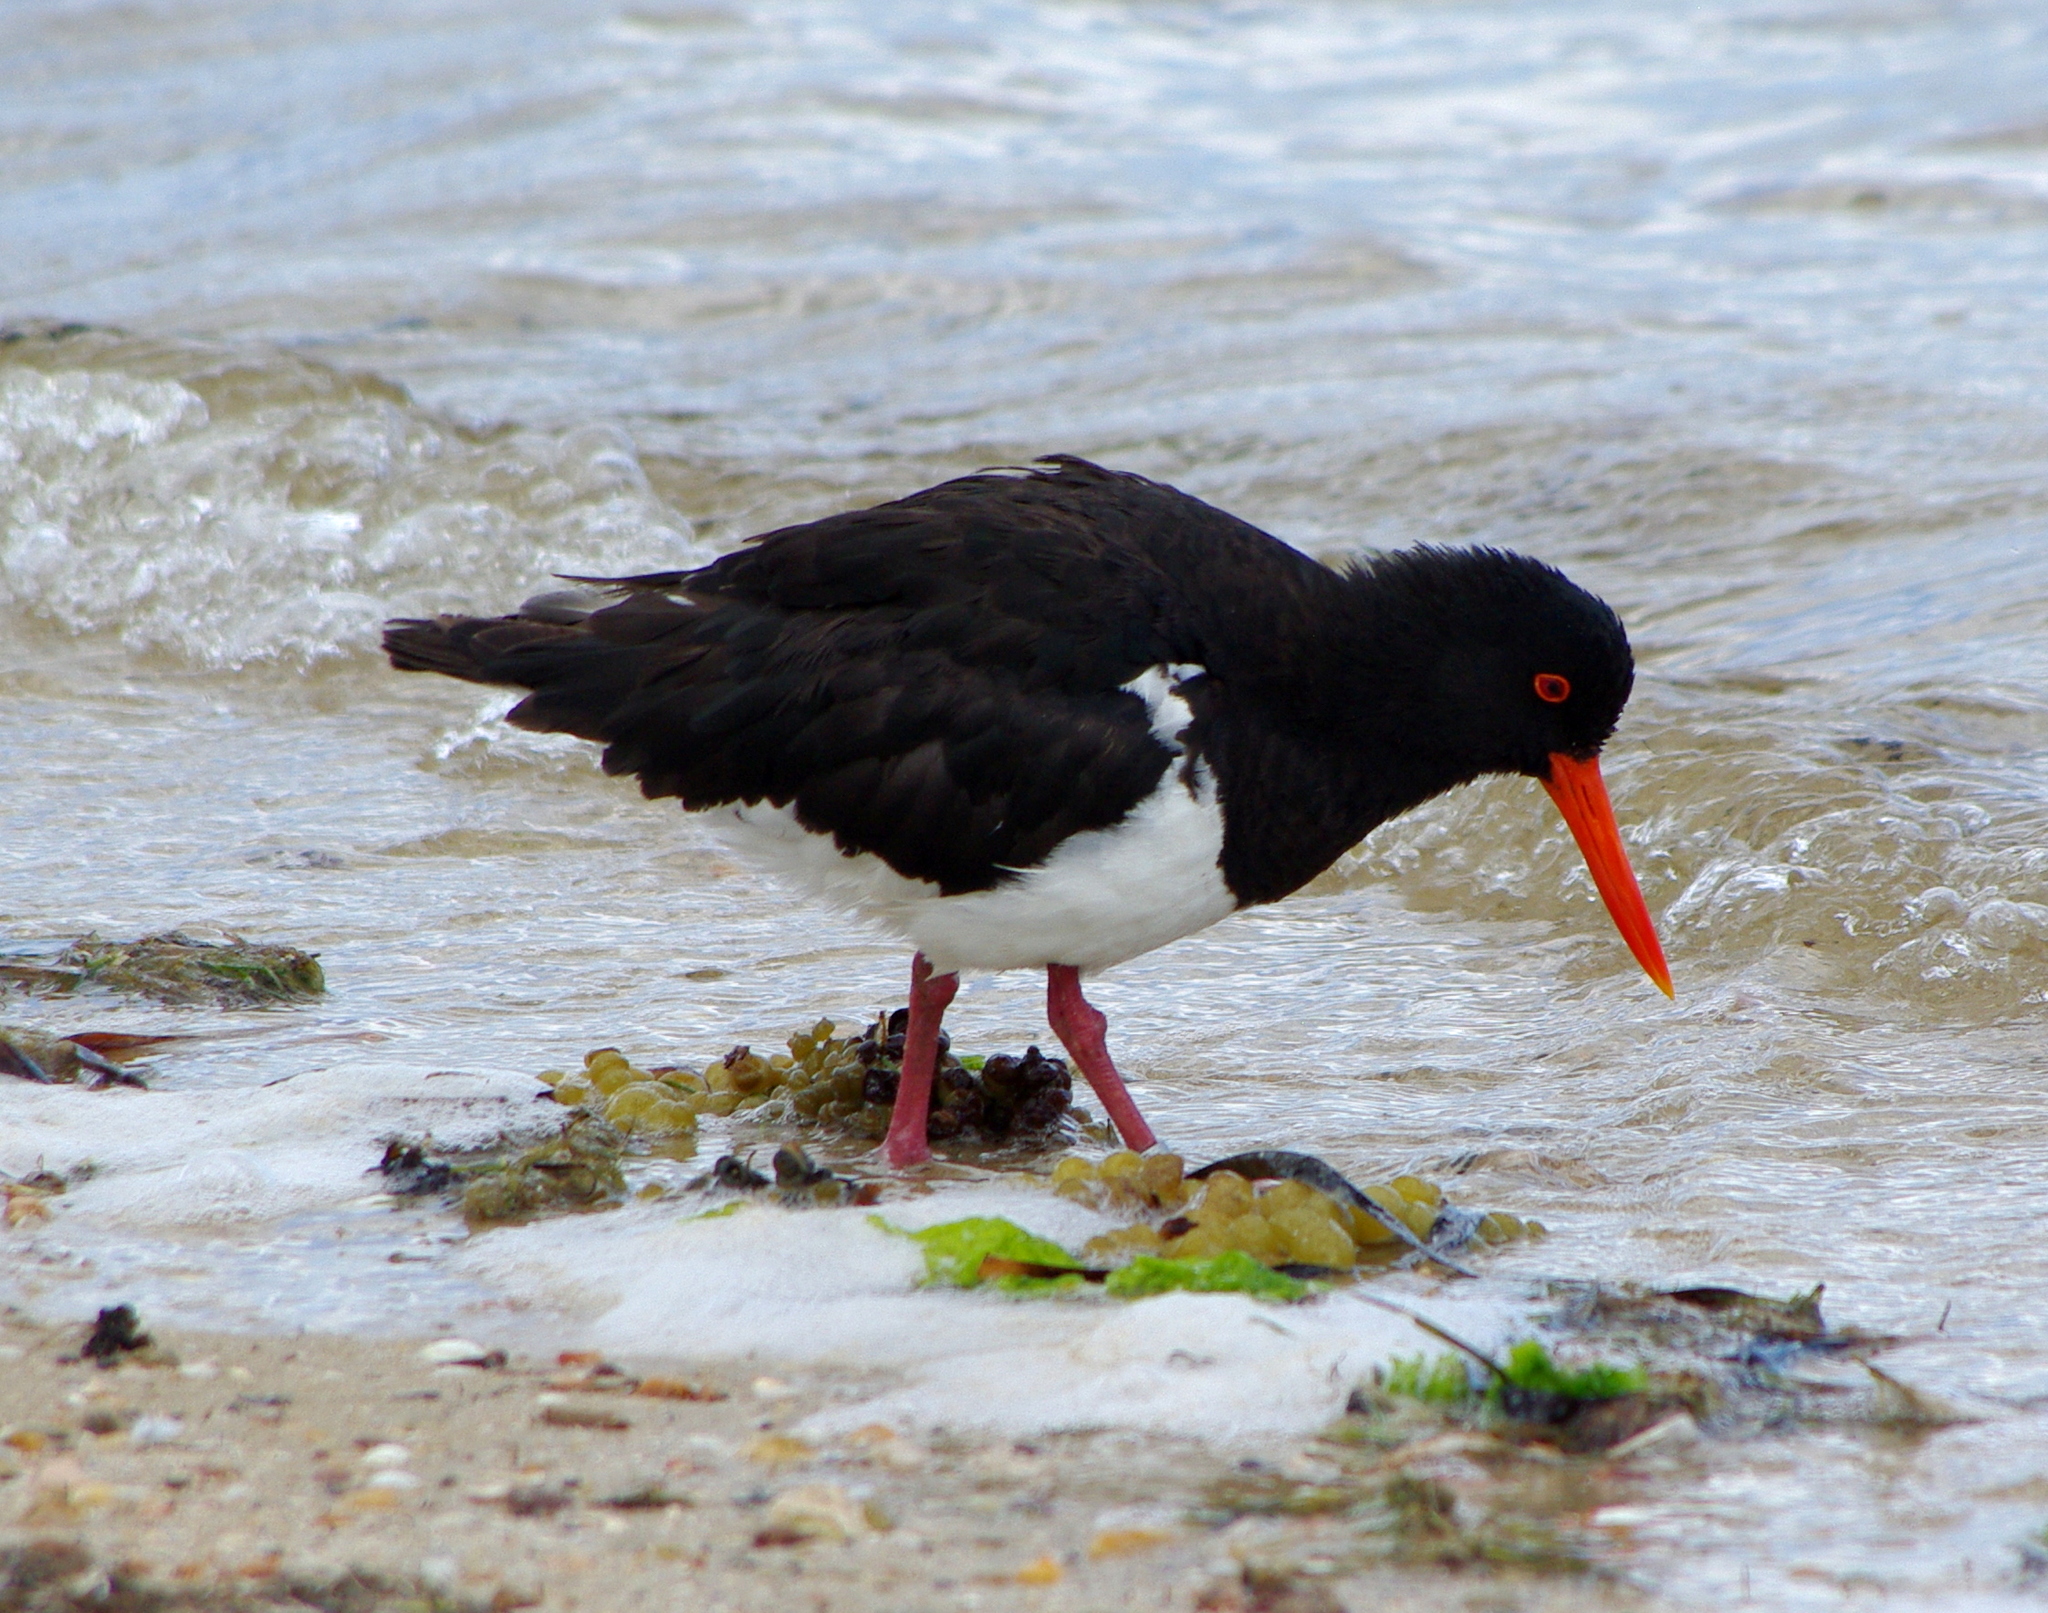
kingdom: Animalia
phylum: Chordata
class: Aves
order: Charadriiformes
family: Haematopodidae
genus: Haematopus
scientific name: Haematopus longirostris
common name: Pied oystercatcher
